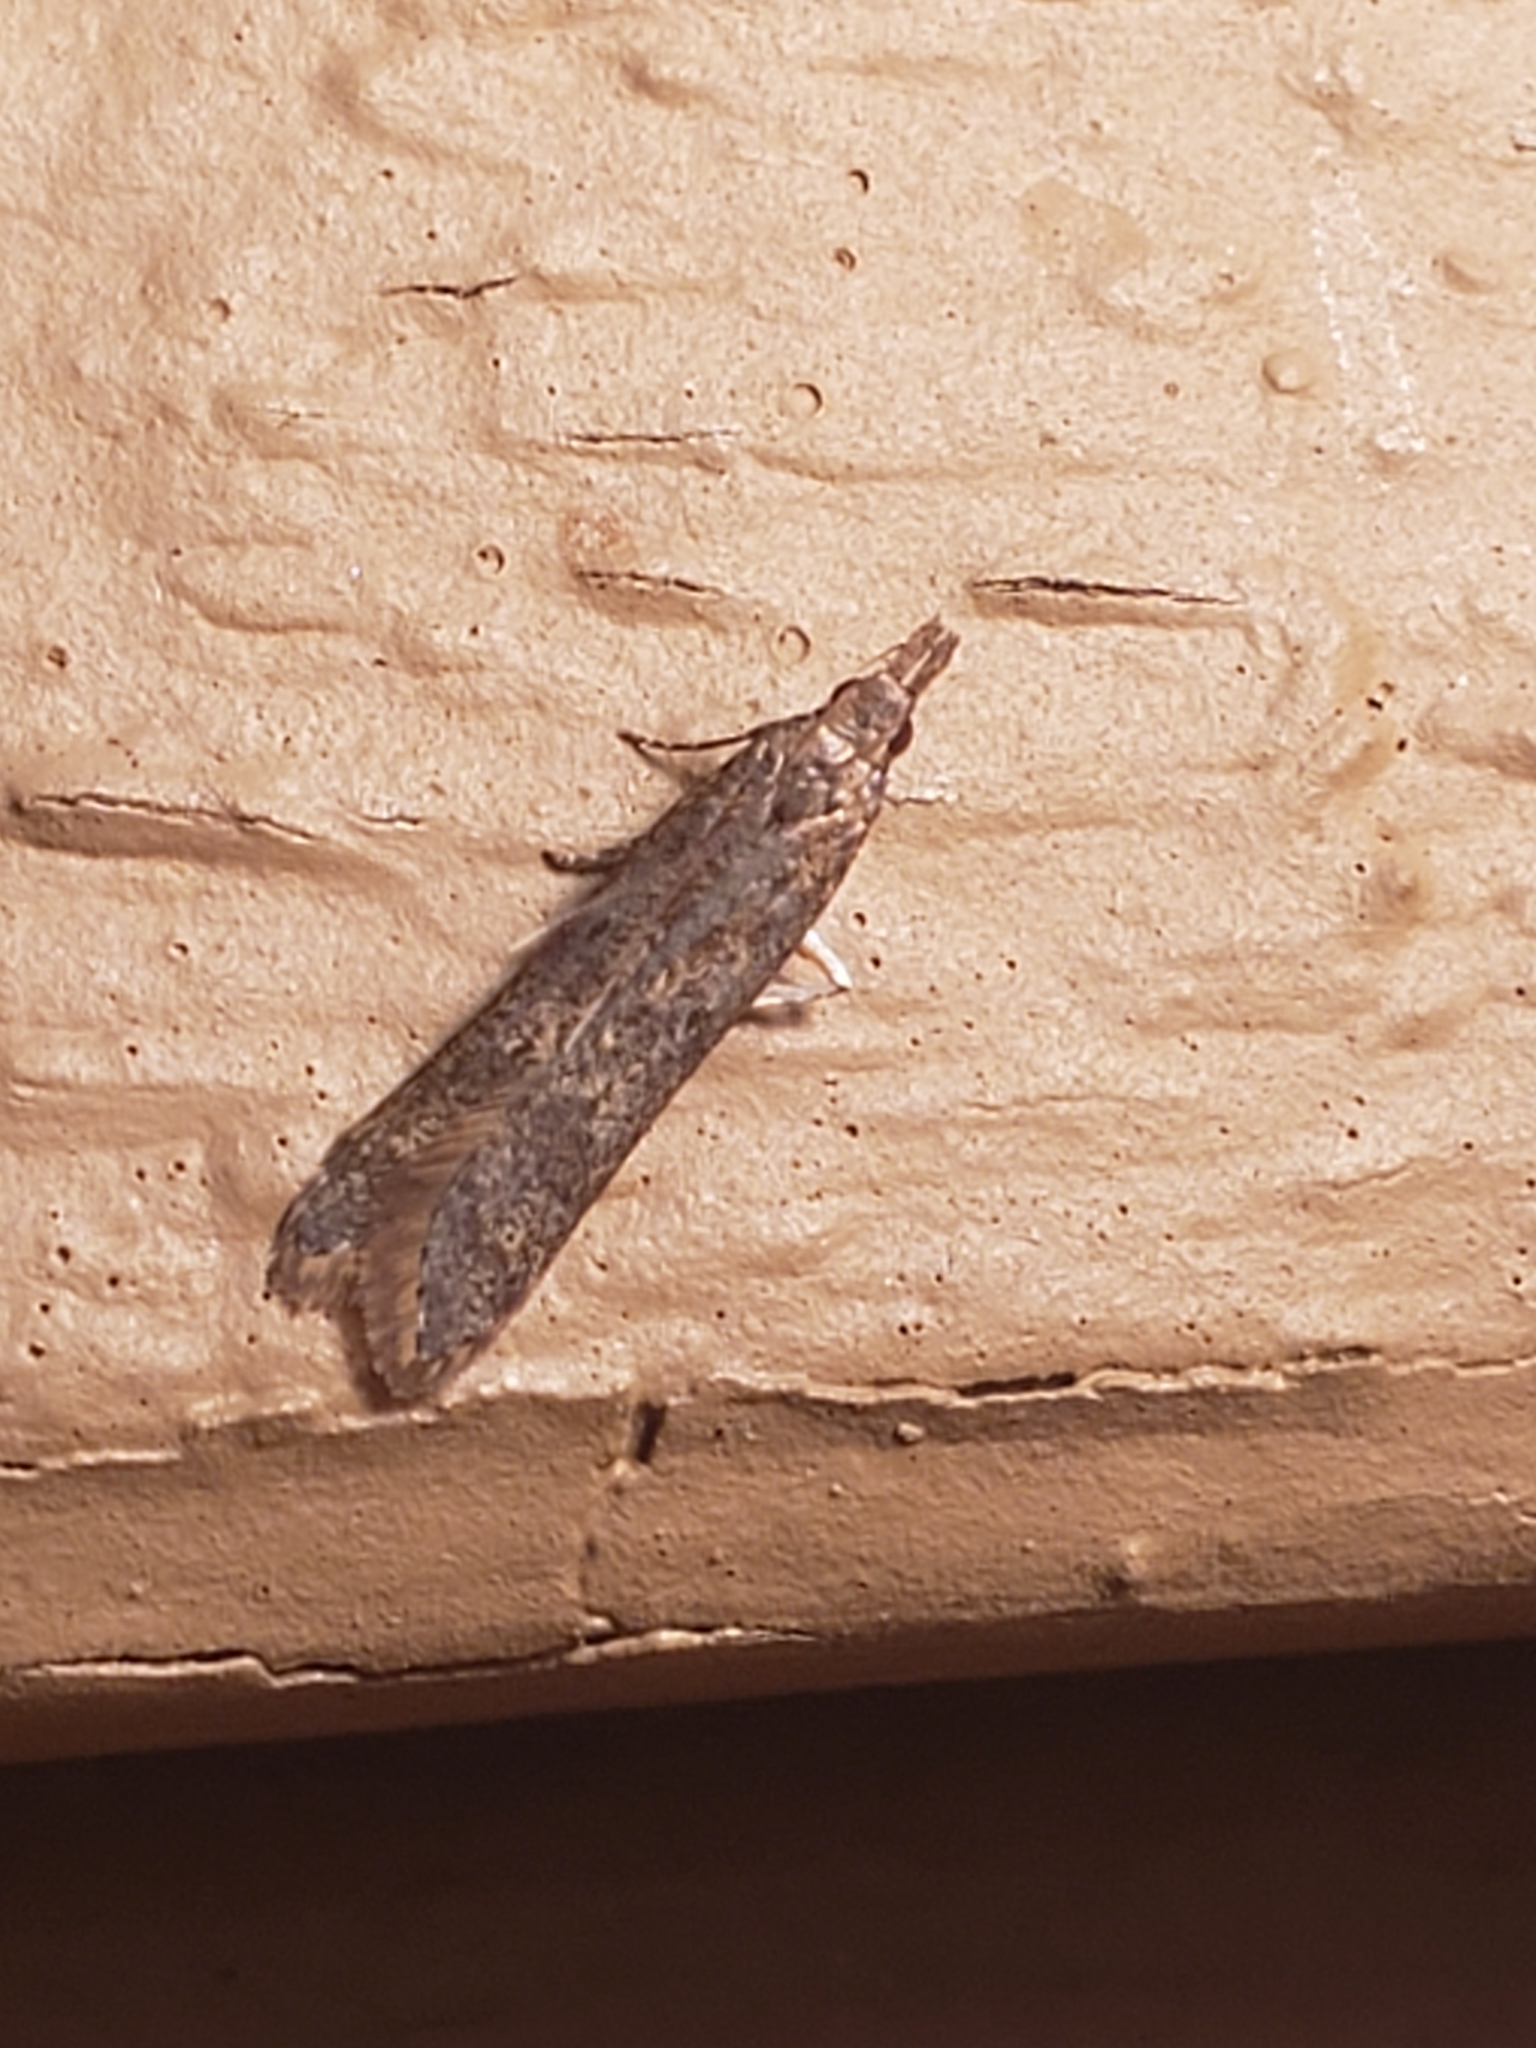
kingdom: Animalia
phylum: Arthropoda
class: Insecta
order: Lepidoptera
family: Gelechiidae
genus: Dichomeris
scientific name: Dichomeris ligulella
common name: Moth
